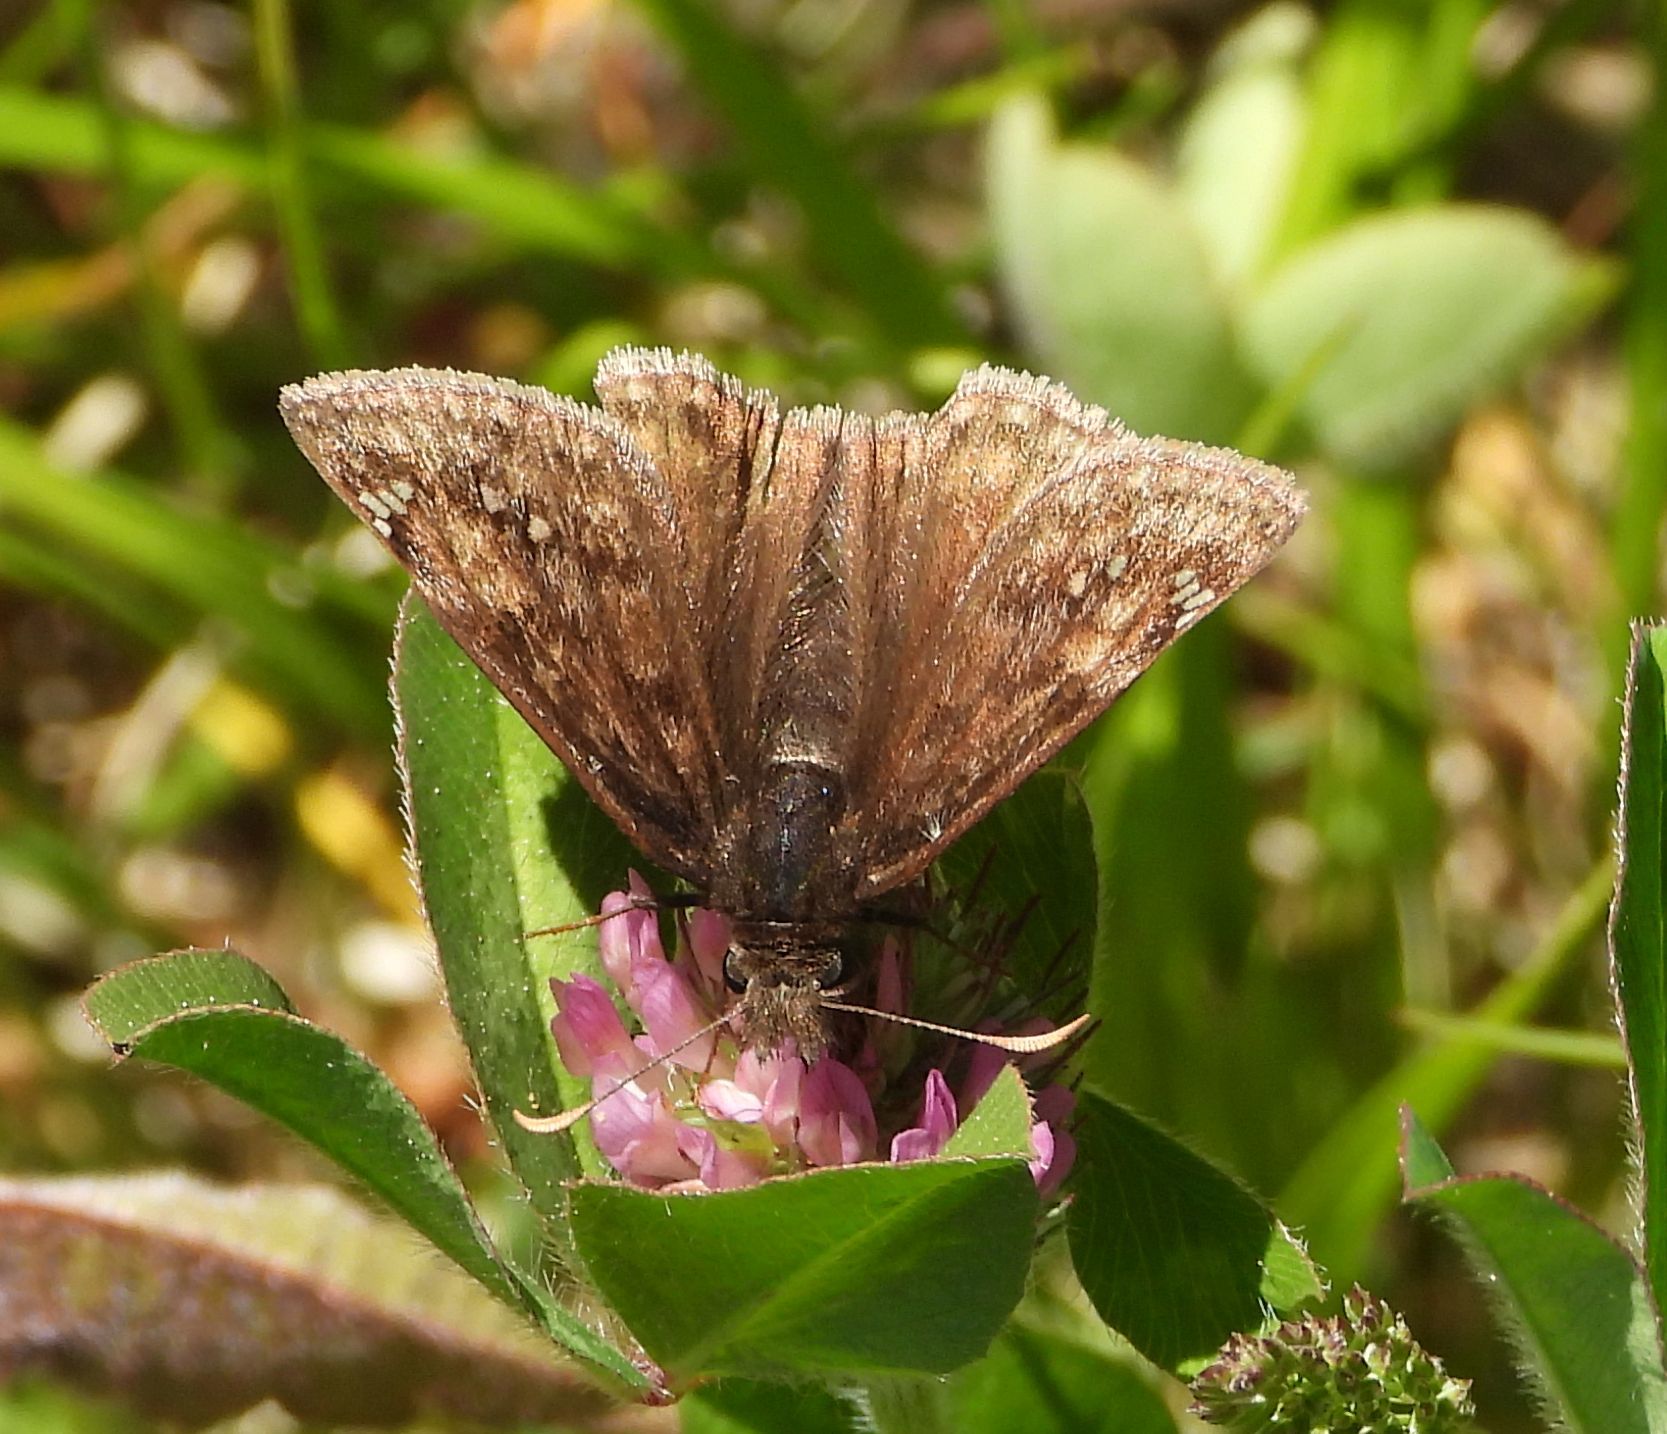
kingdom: Animalia
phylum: Arthropoda
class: Insecta
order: Lepidoptera
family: Hesperiidae
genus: Erynnis
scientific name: Erynnis juvenalis
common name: Juvenal's duskywing
